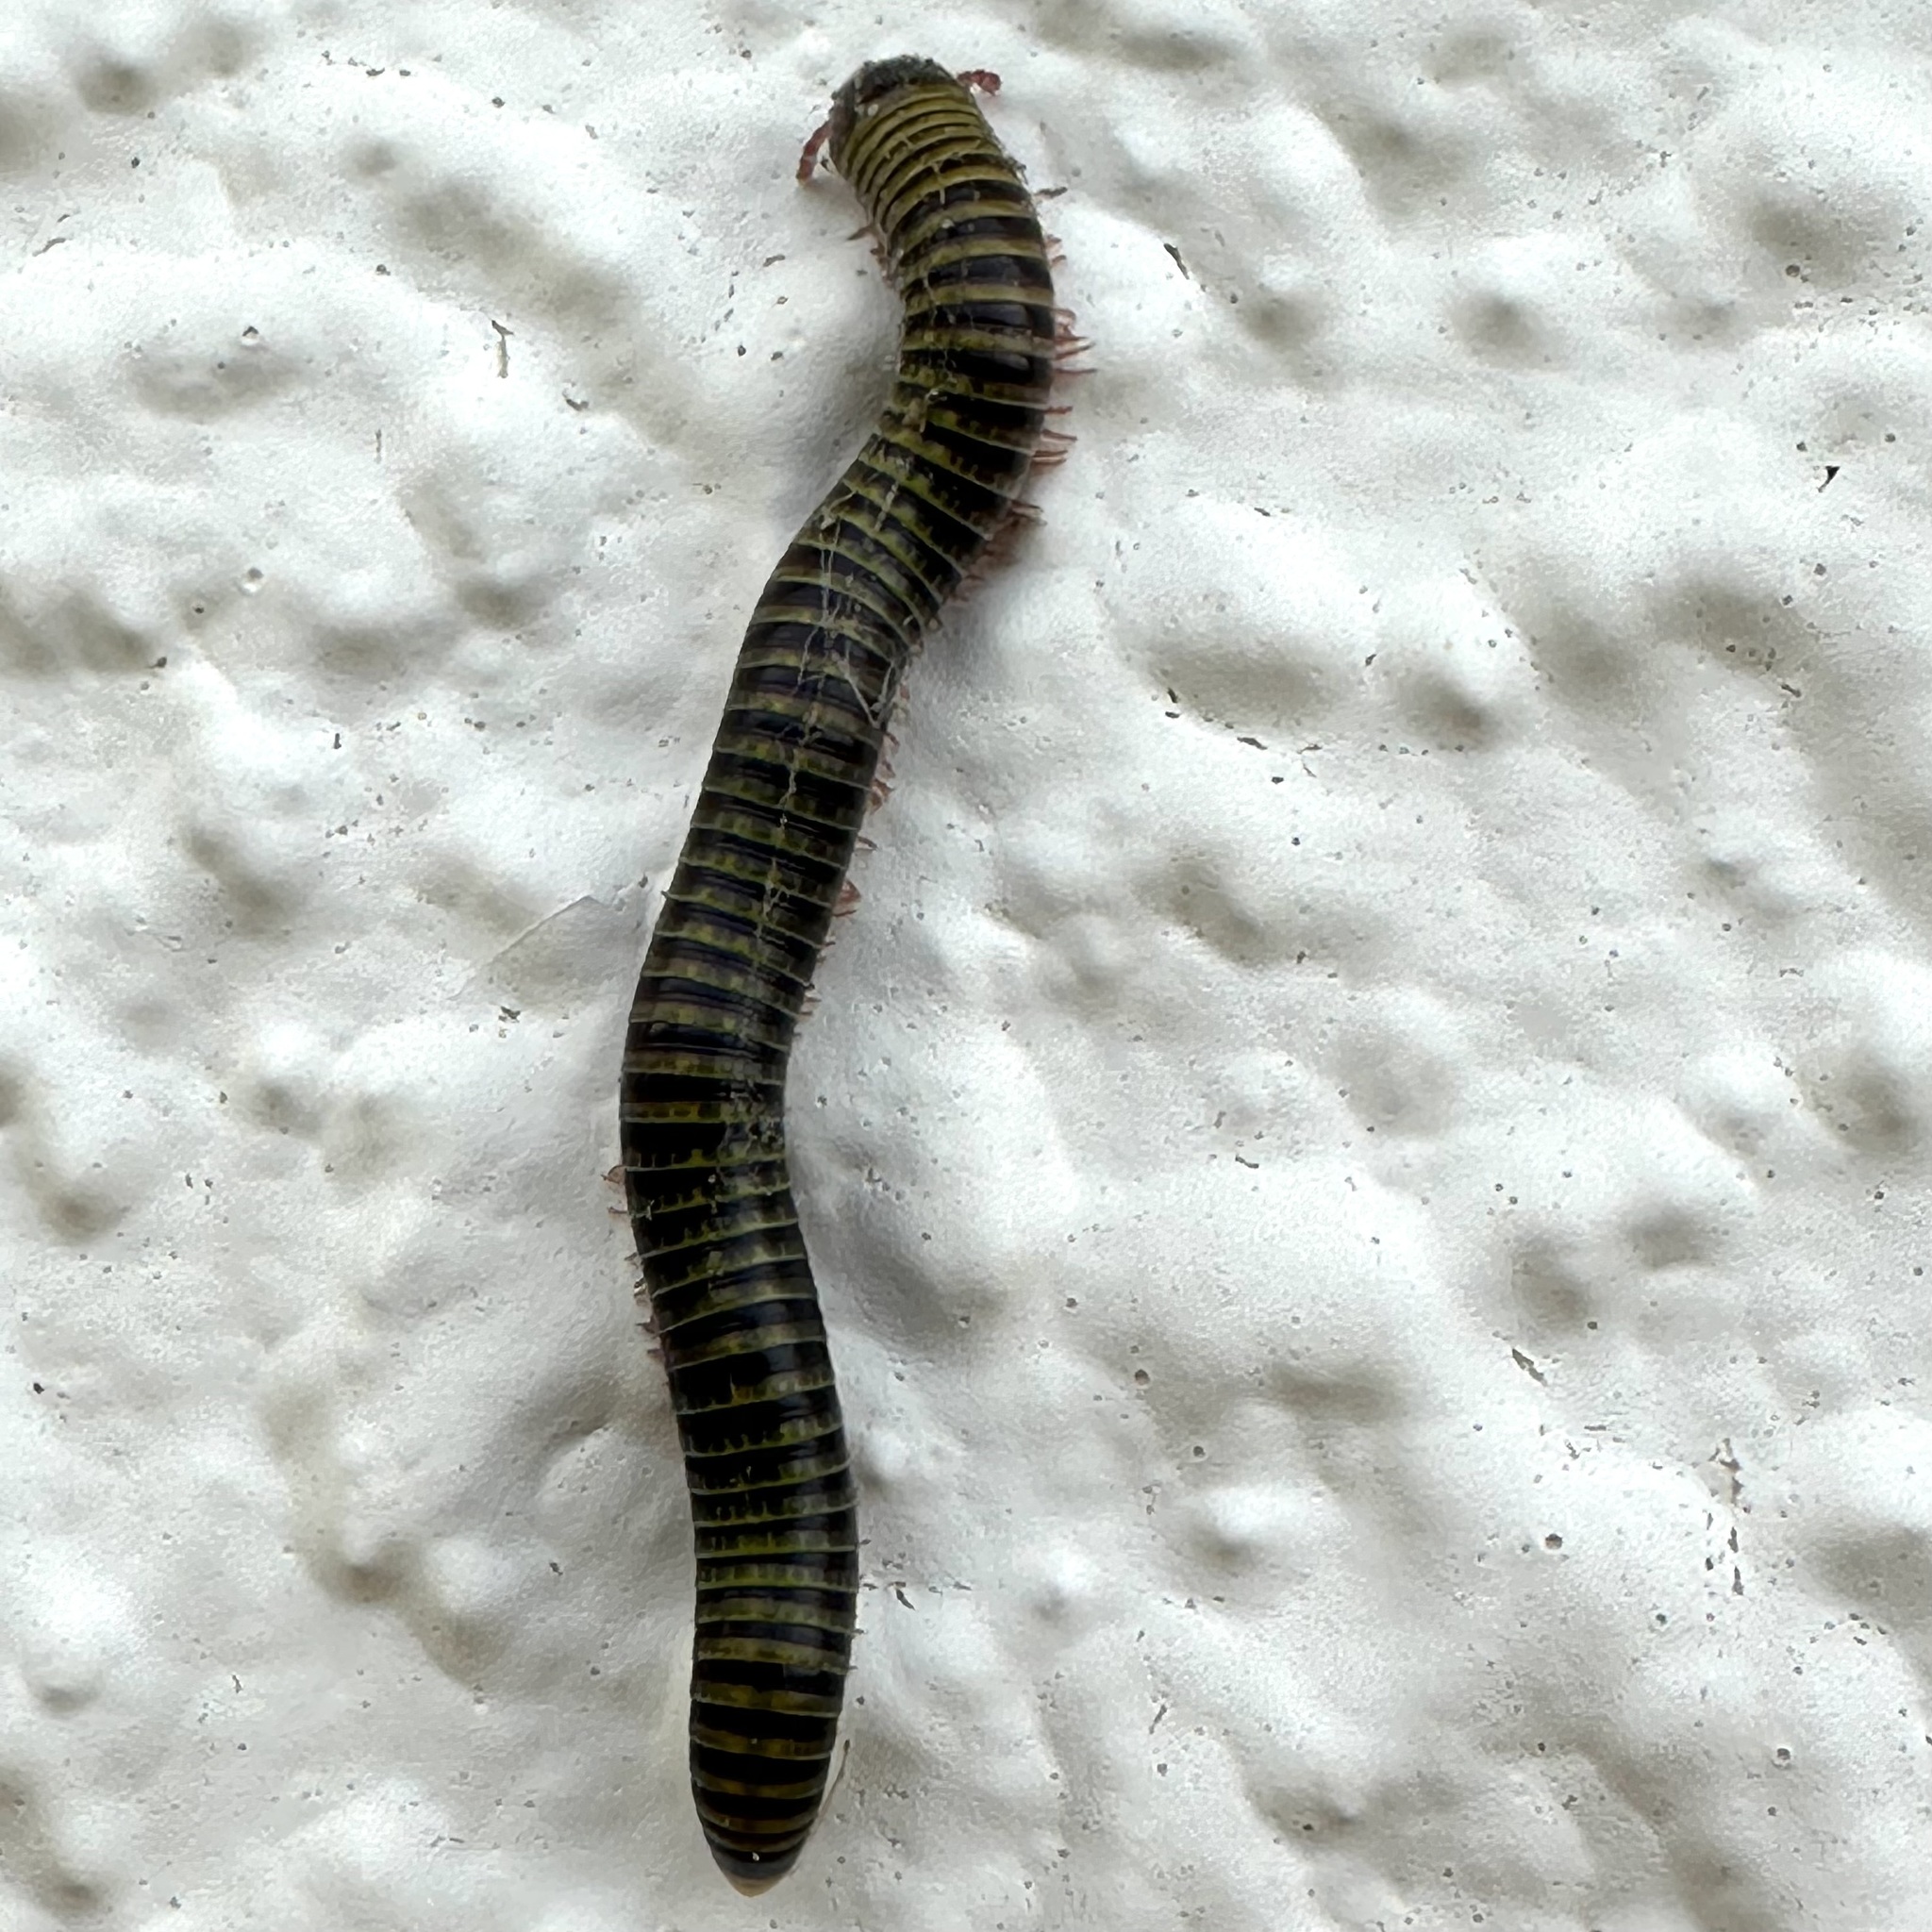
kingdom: Animalia
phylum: Arthropoda
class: Diplopoda
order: Spirobolida
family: Rhinocricidae
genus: Anadenobolus
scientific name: Anadenobolus monilicornis
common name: Caribbean millipede
